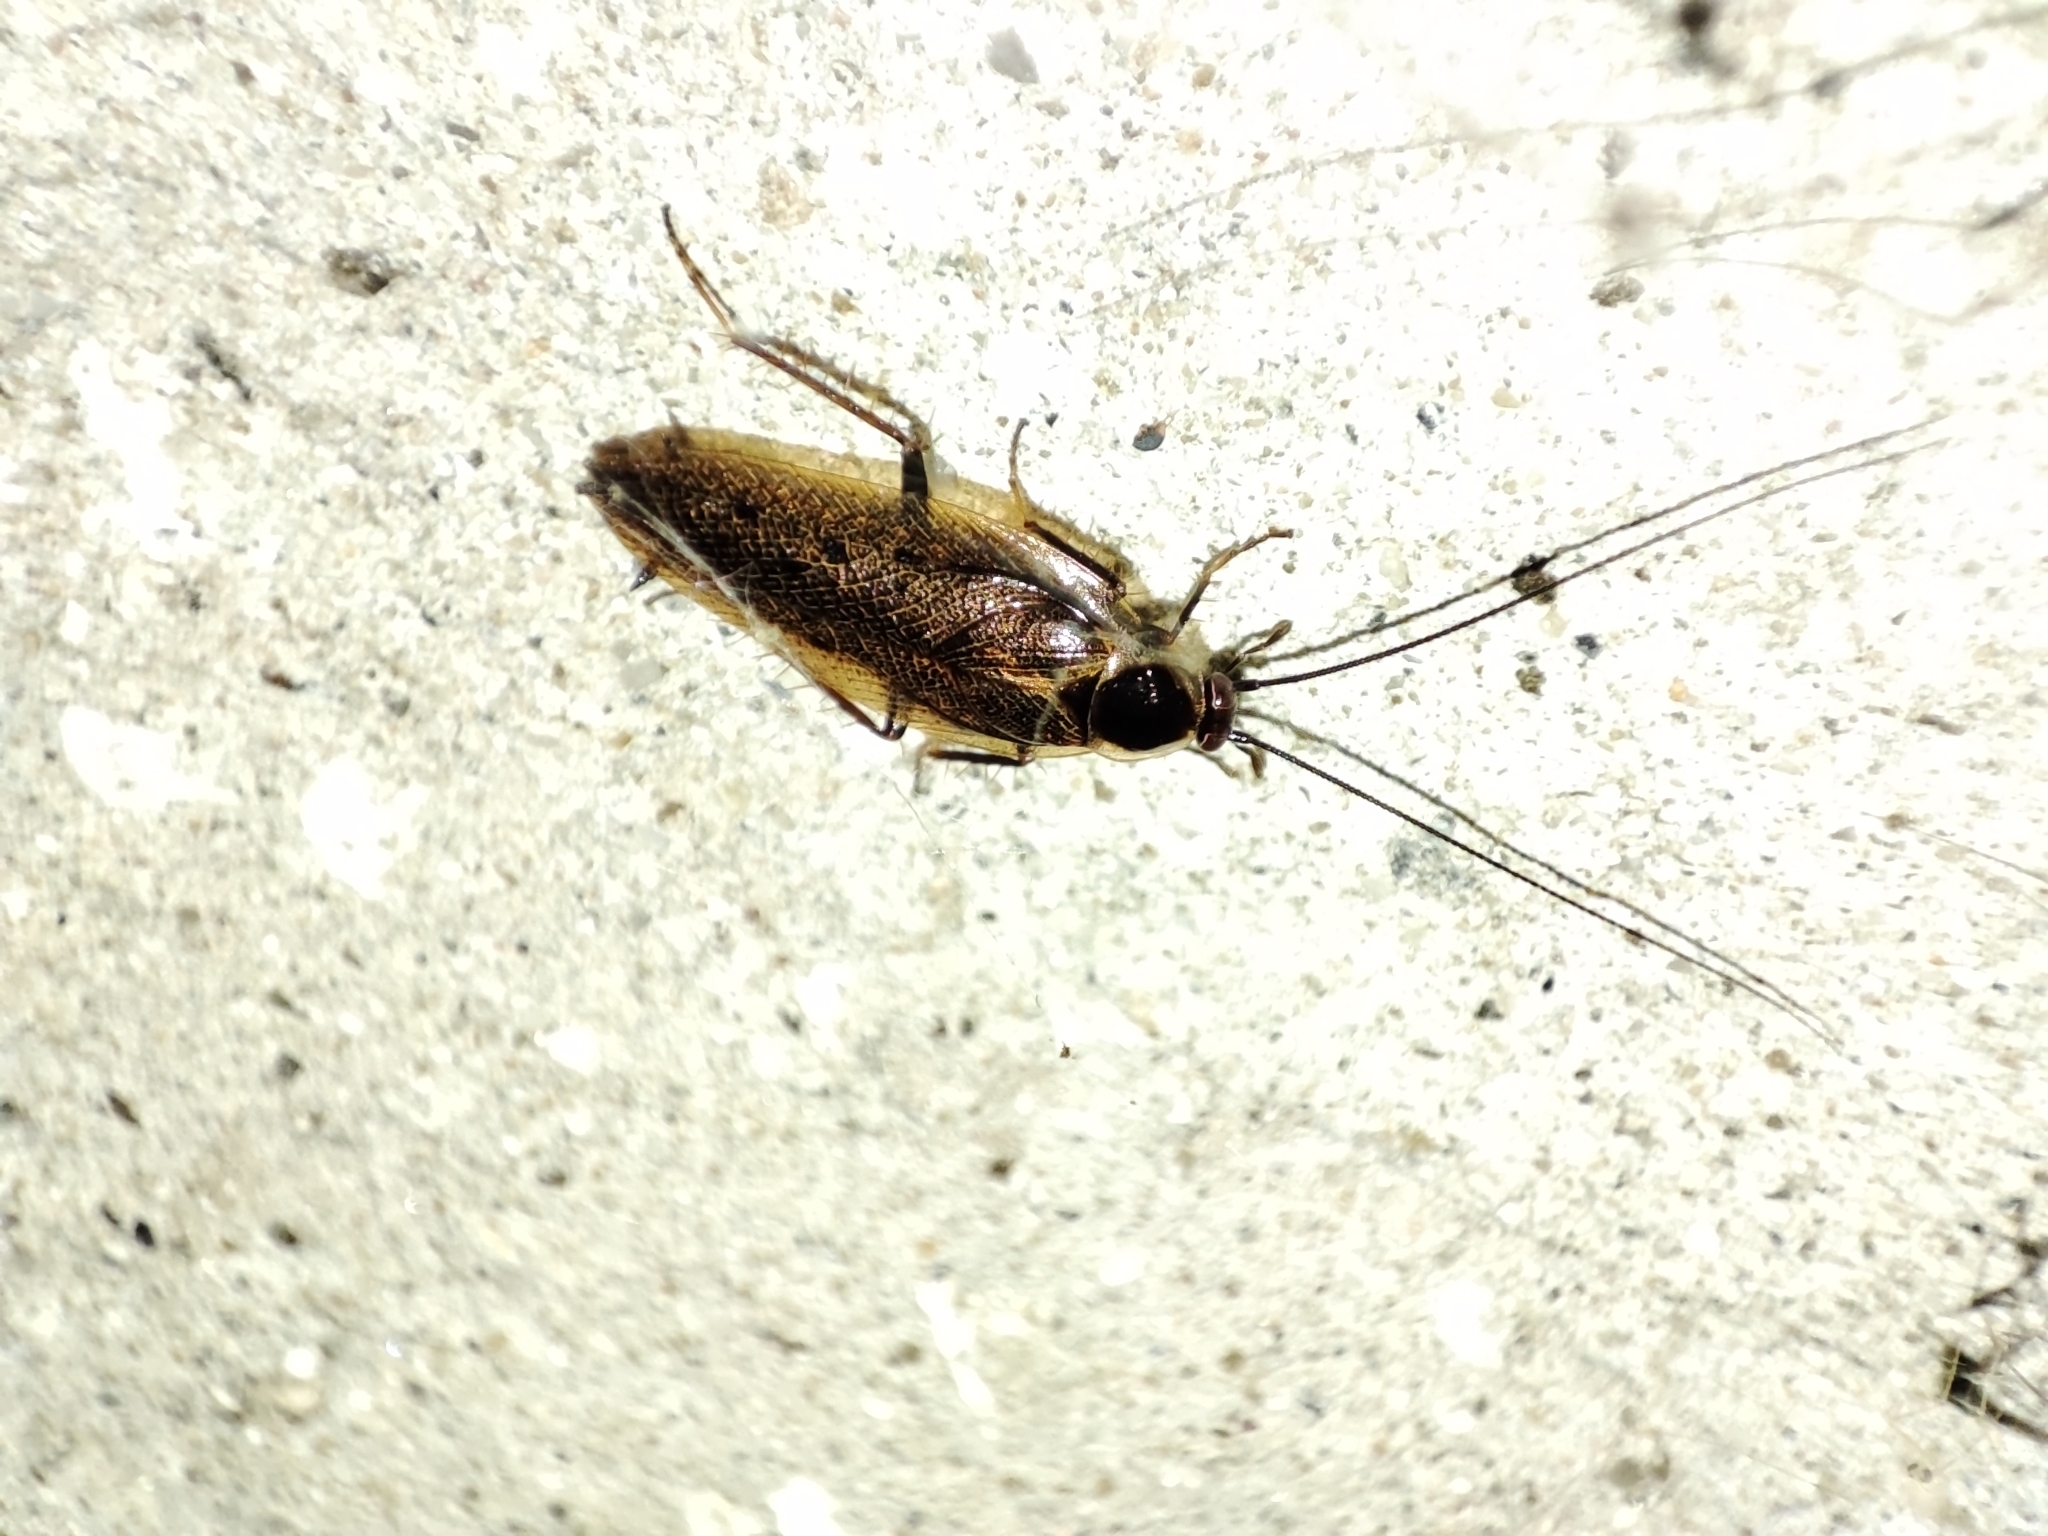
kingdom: Animalia
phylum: Arthropoda
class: Insecta
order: Blattodea
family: Ectobiidae
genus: Ectobius
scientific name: Ectobius lapponicus
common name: Dusky cockroach
